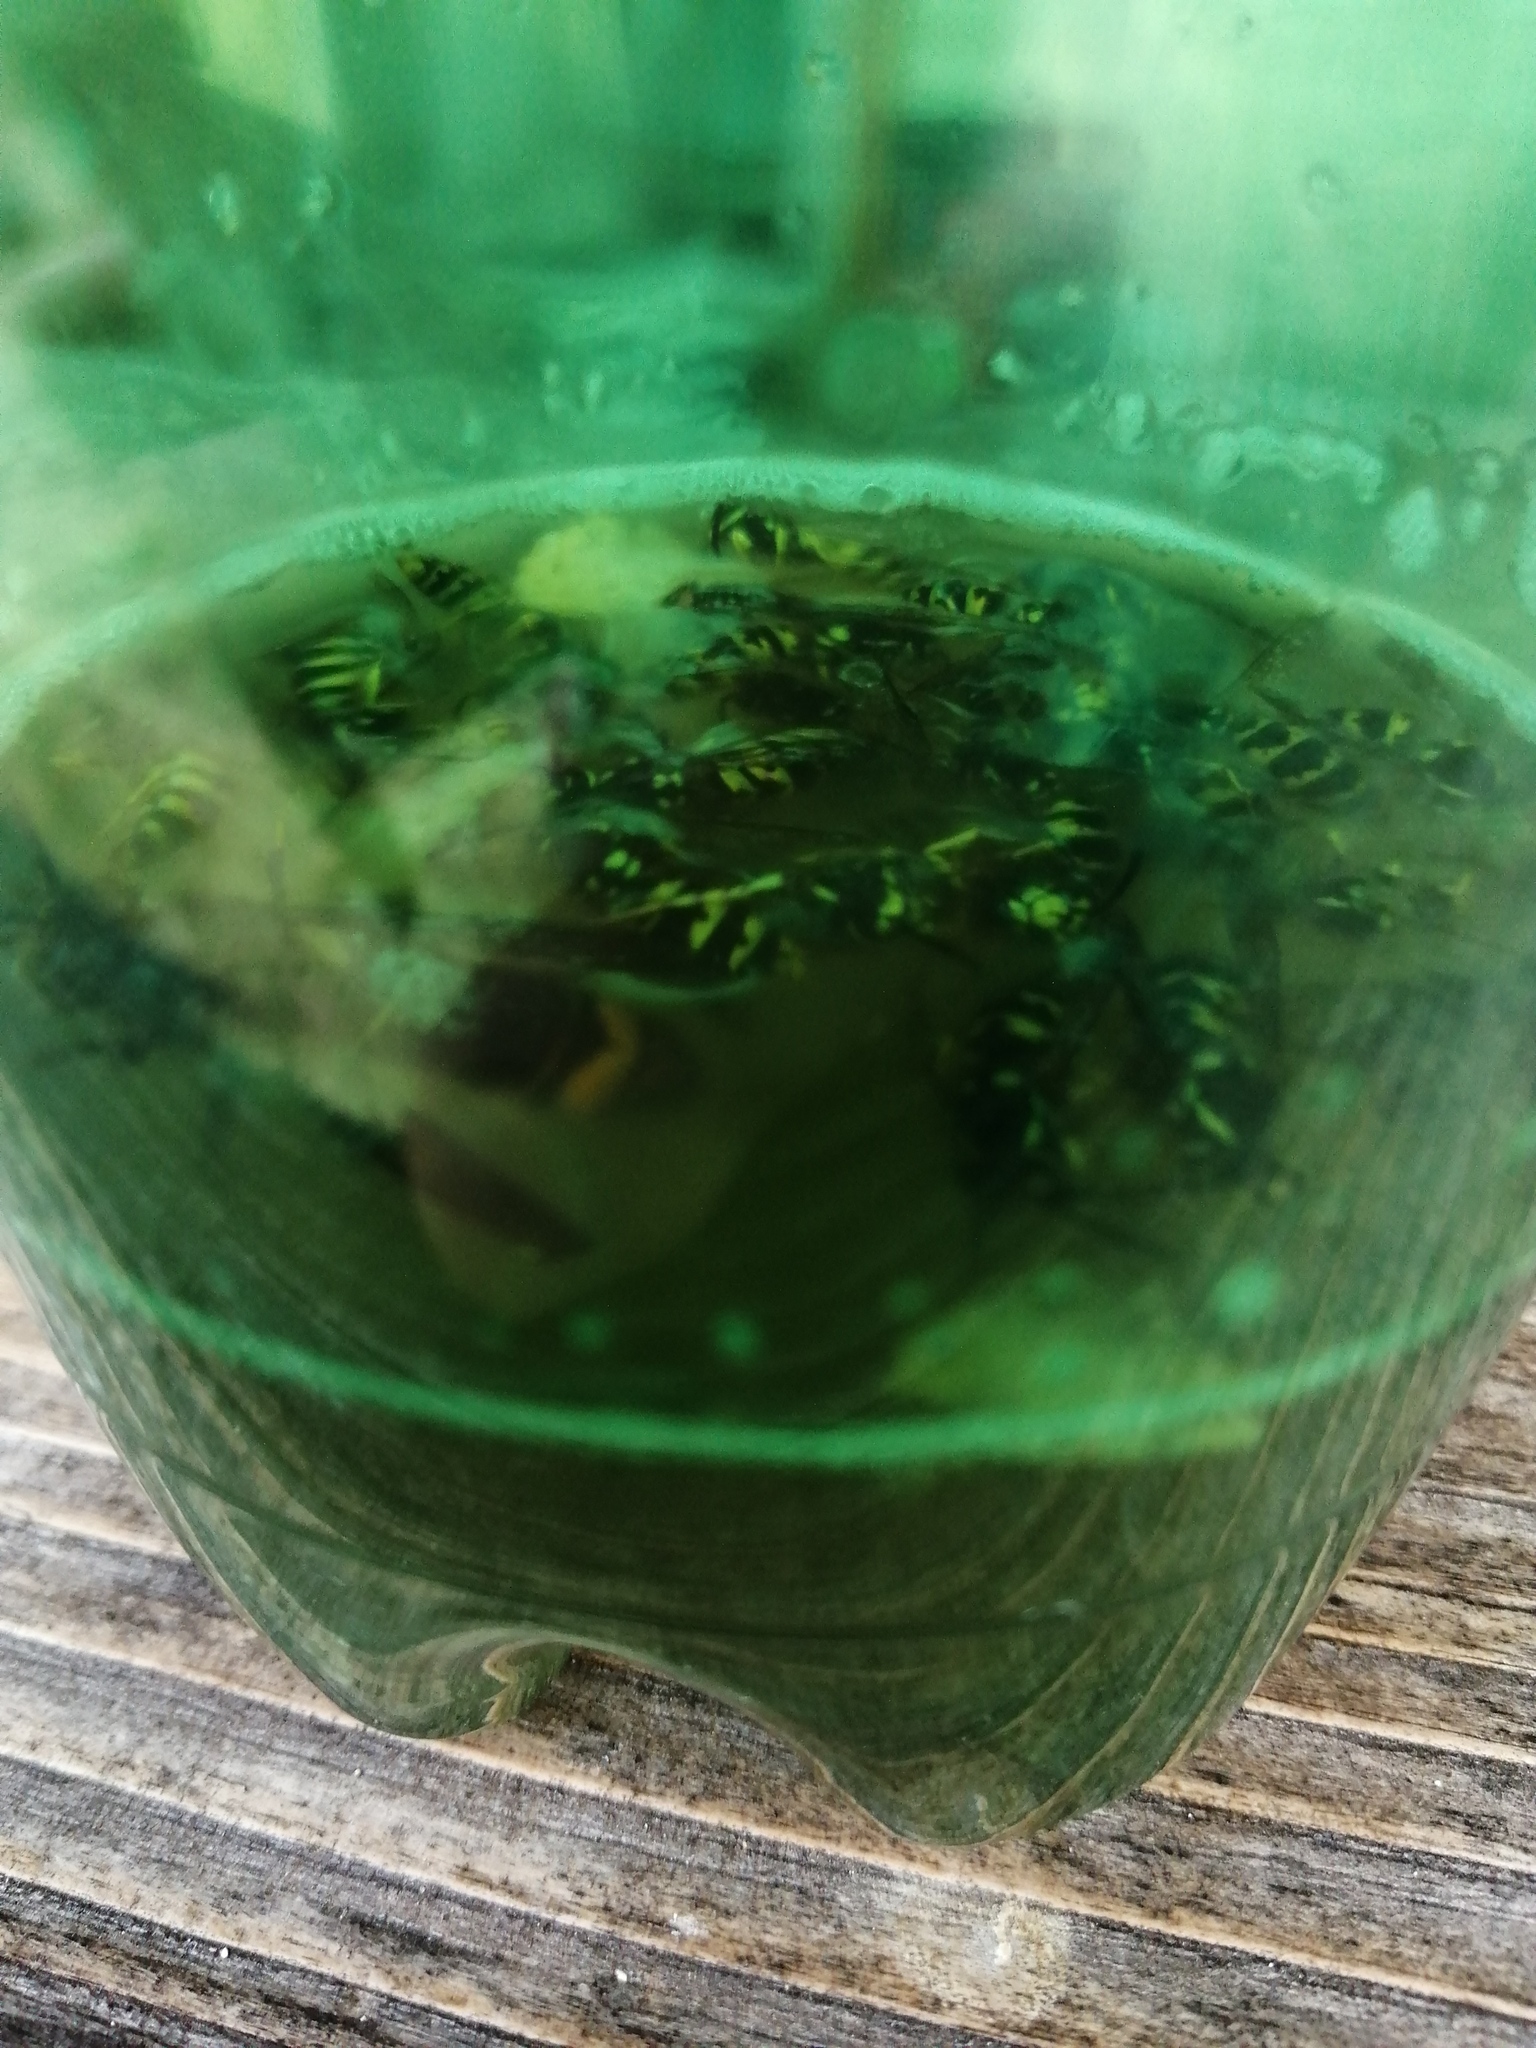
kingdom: Animalia
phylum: Arthropoda
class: Insecta
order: Hymenoptera
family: Vespidae
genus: Vespa
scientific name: Vespa velutina
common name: Asian hornet
